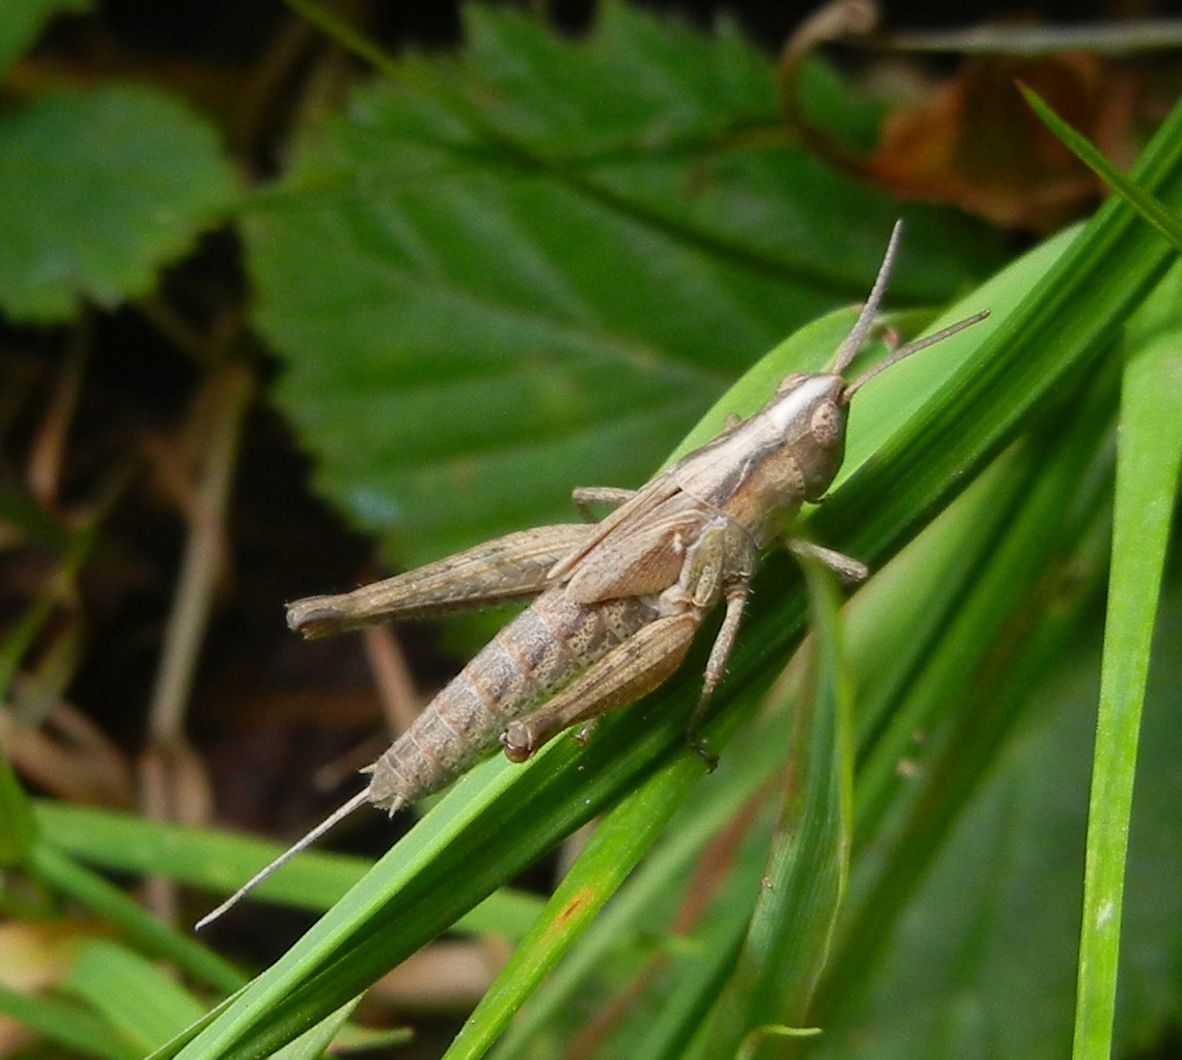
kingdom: Animalia
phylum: Arthropoda
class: Insecta
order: Orthoptera
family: Acrididae
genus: Chorthippus
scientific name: Chorthippus brunneus
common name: Field grasshopper
